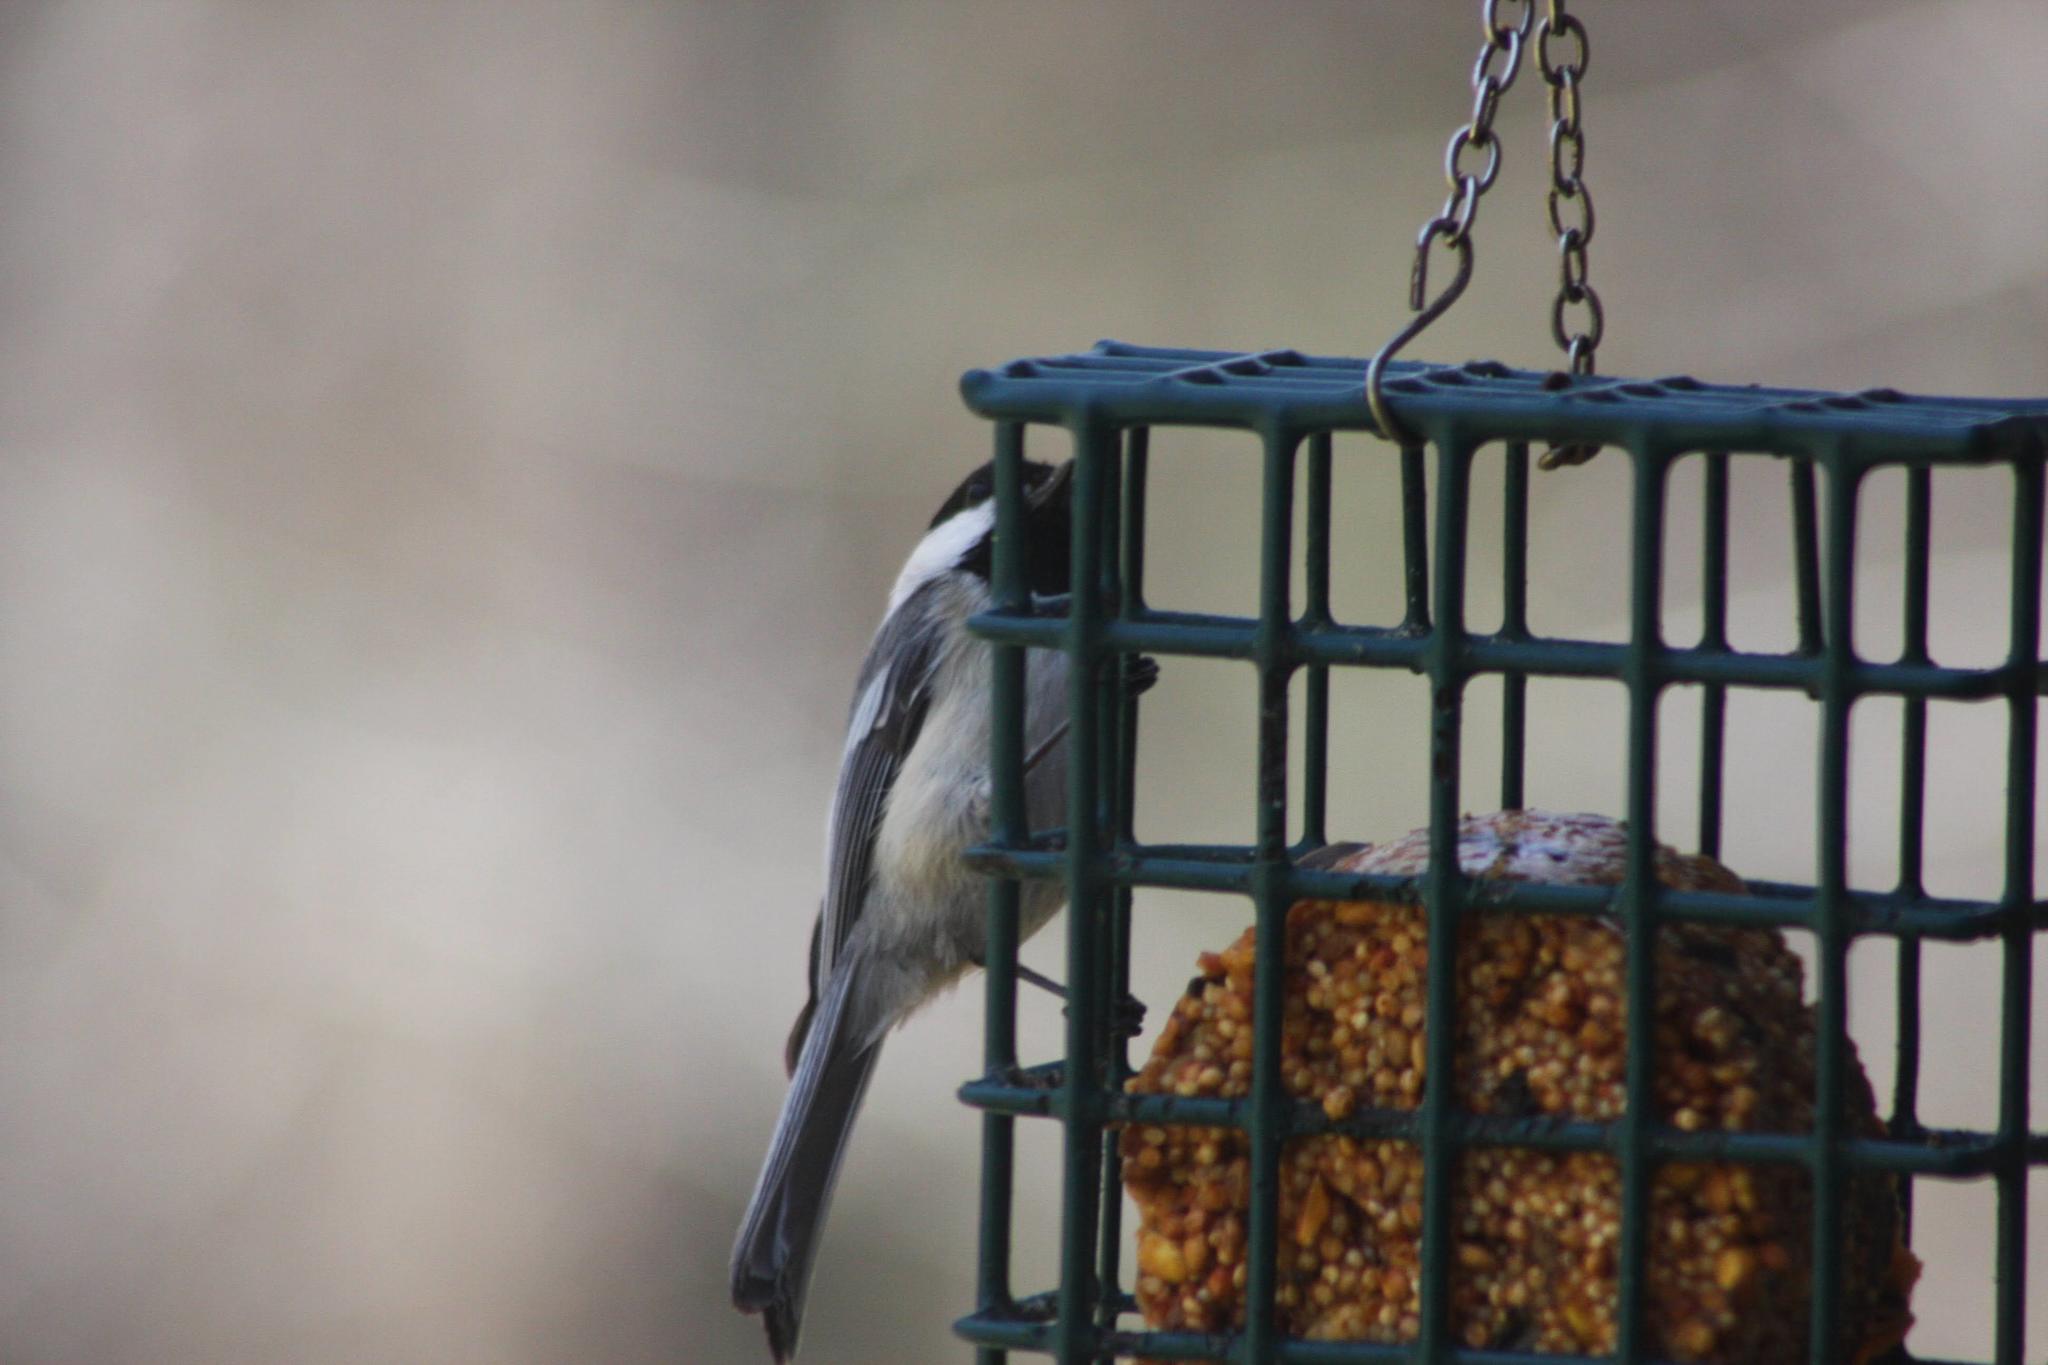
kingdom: Animalia
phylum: Chordata
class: Aves
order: Passeriformes
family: Paridae
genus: Poecile
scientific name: Poecile atricapillus
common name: Black-capped chickadee
